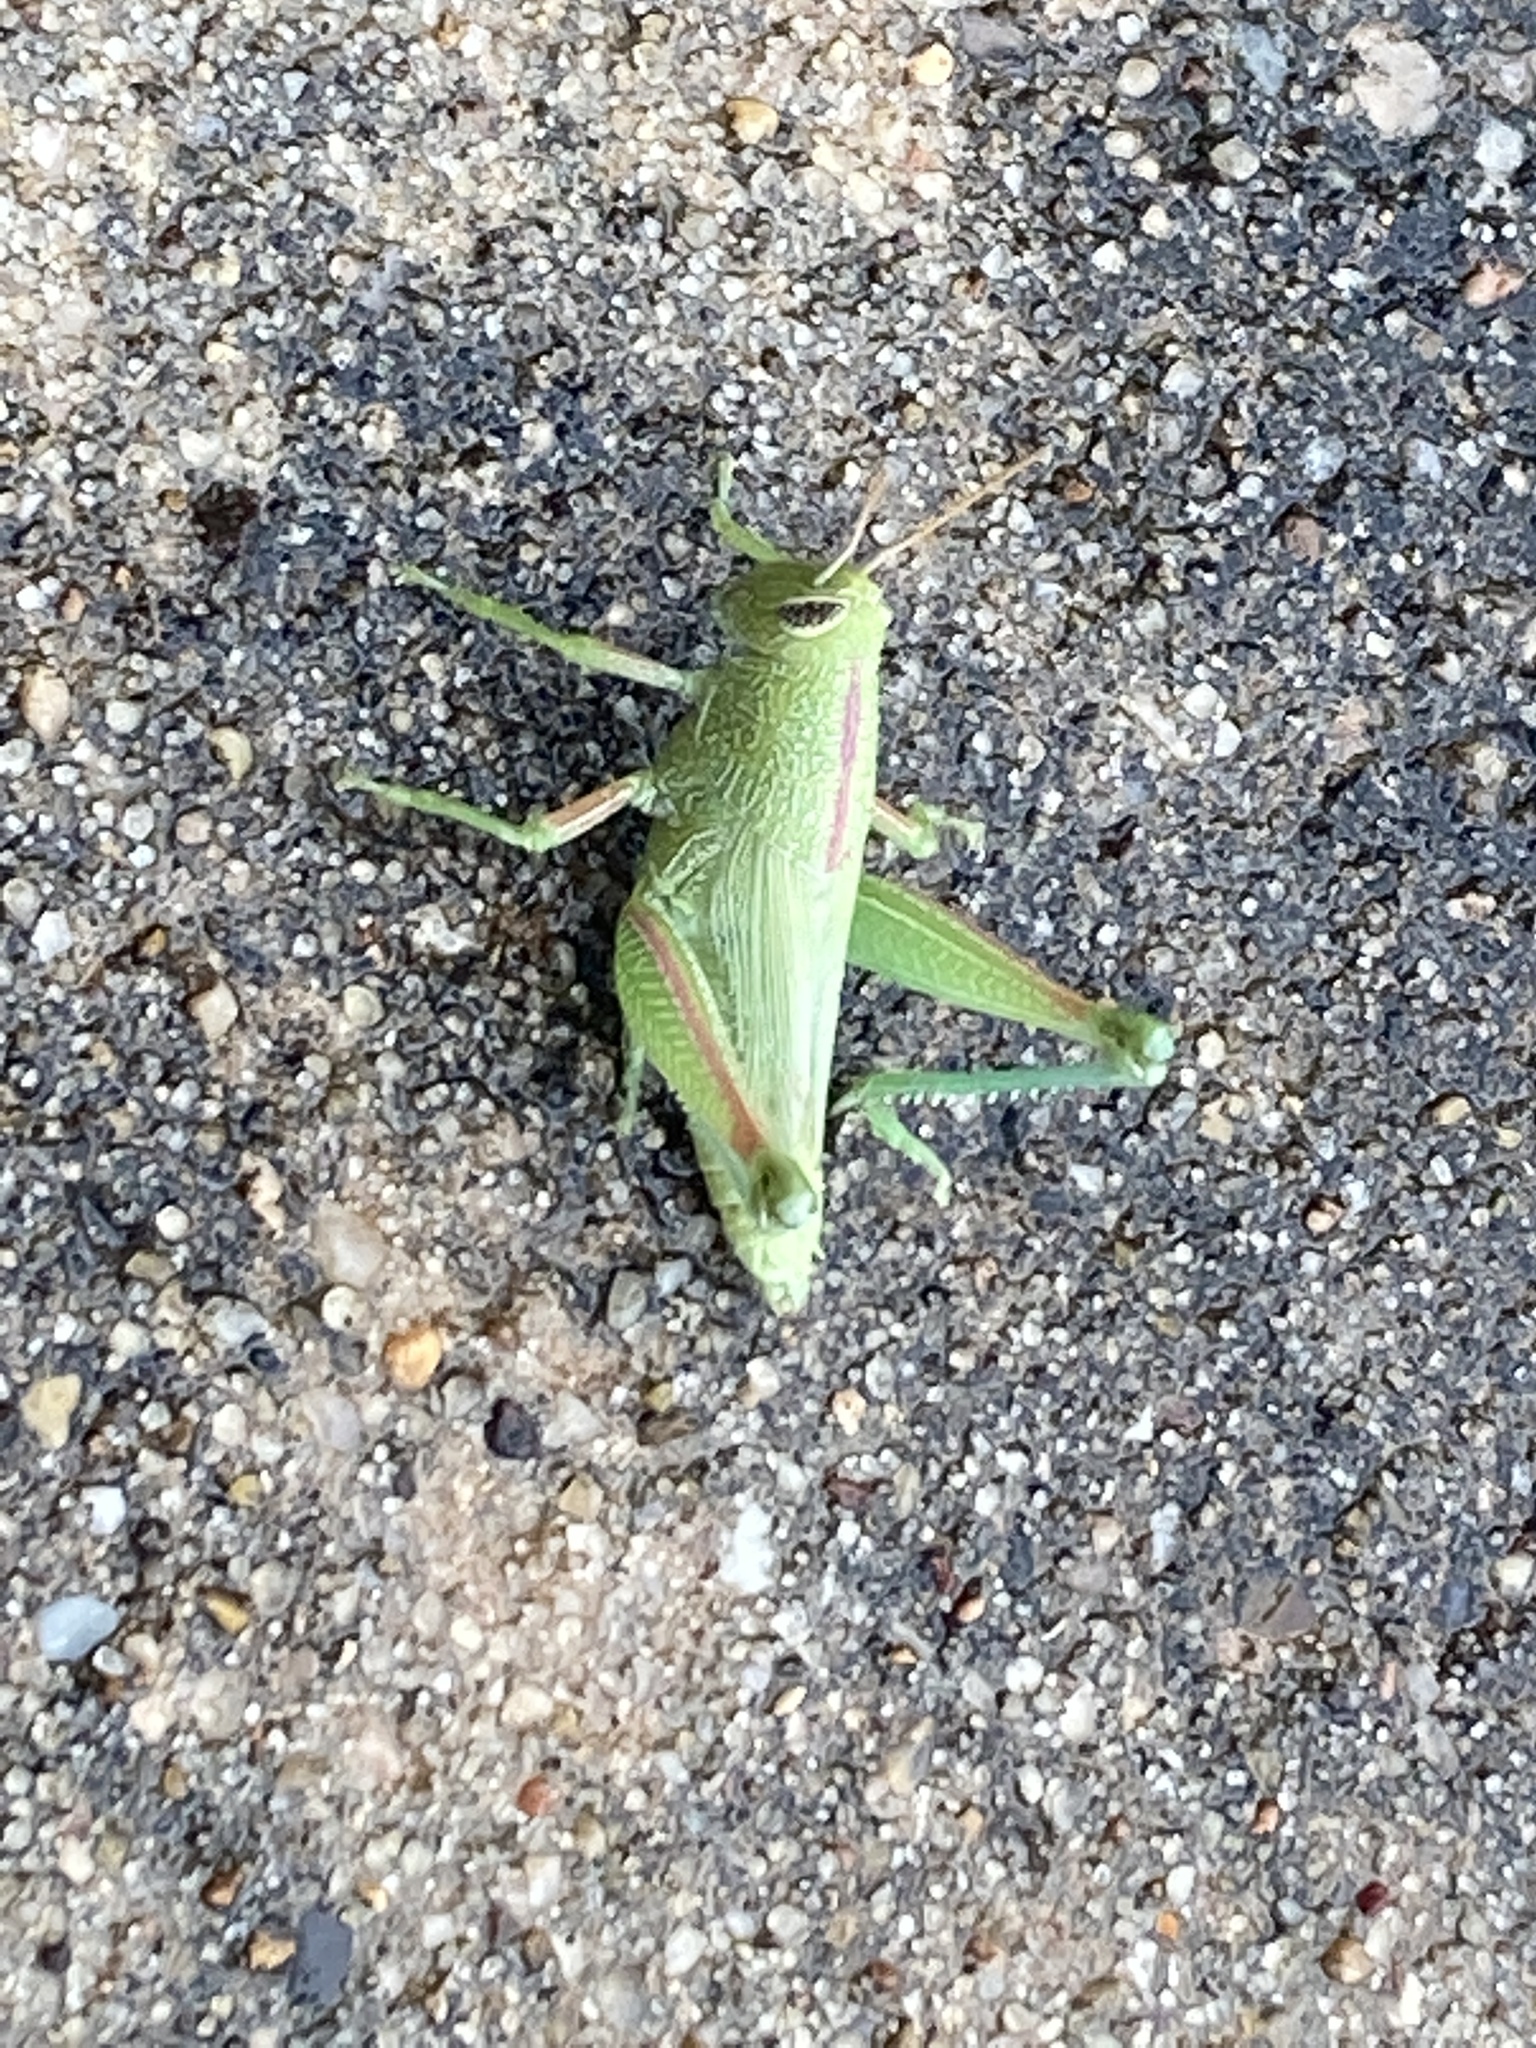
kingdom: Animalia
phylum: Arthropoda
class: Insecta
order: Orthoptera
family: Acrididae
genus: Hesperotettix
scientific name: Hesperotettix speciosus
